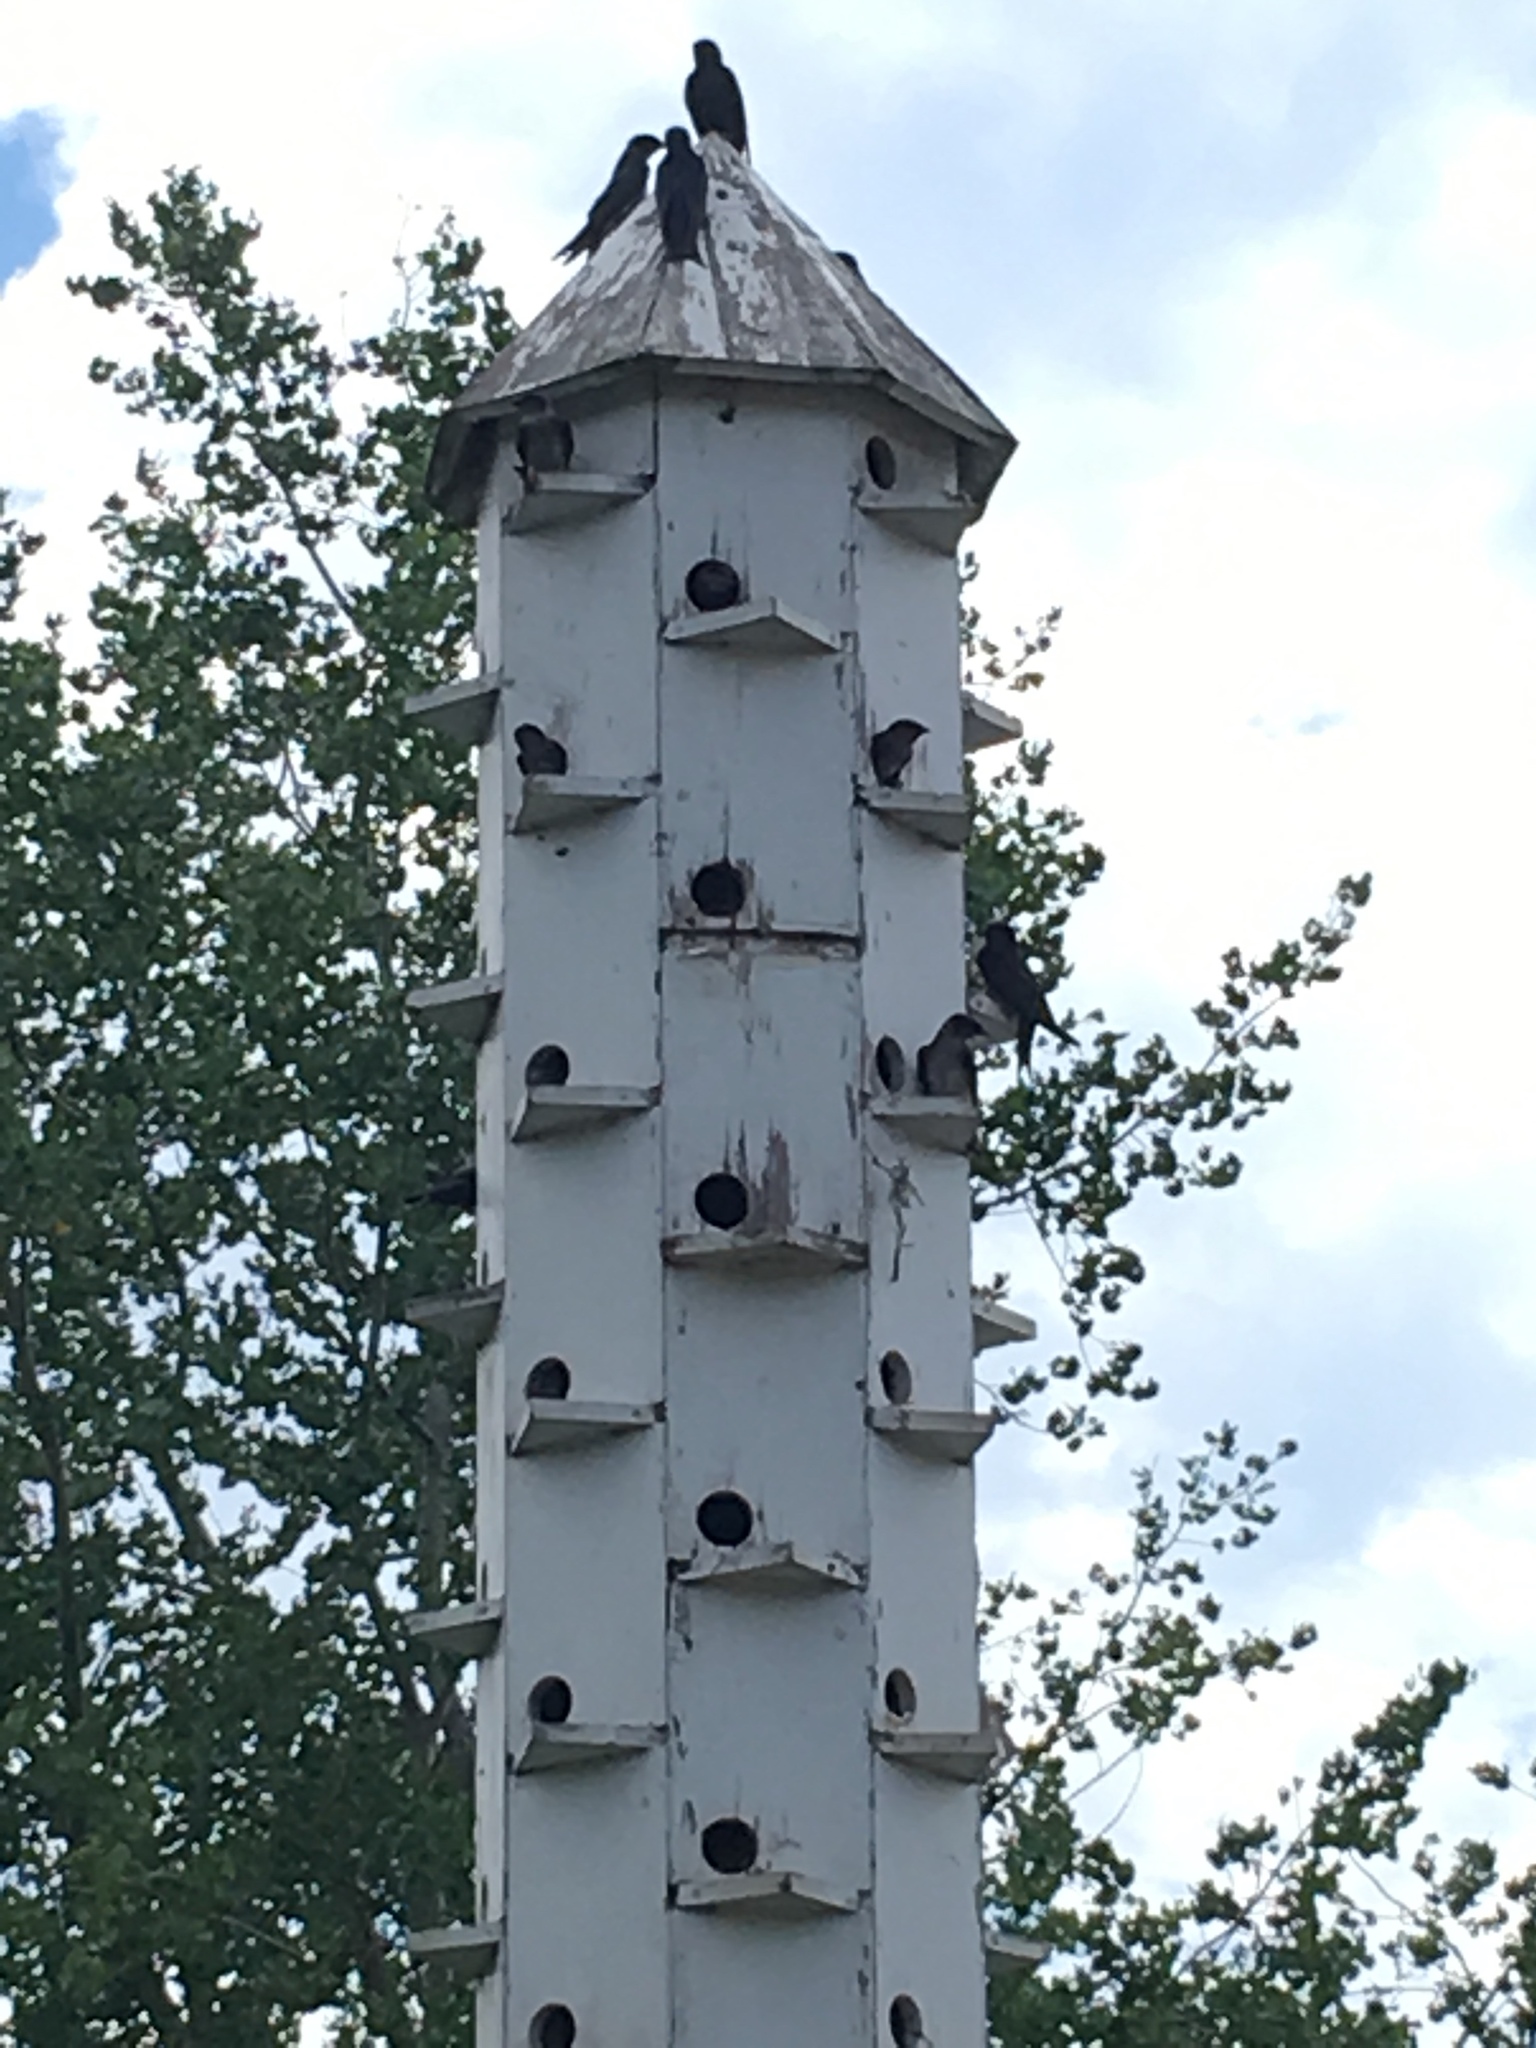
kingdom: Animalia
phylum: Chordata
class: Aves
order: Passeriformes
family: Hirundinidae
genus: Progne
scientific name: Progne subis
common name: Purple martin
